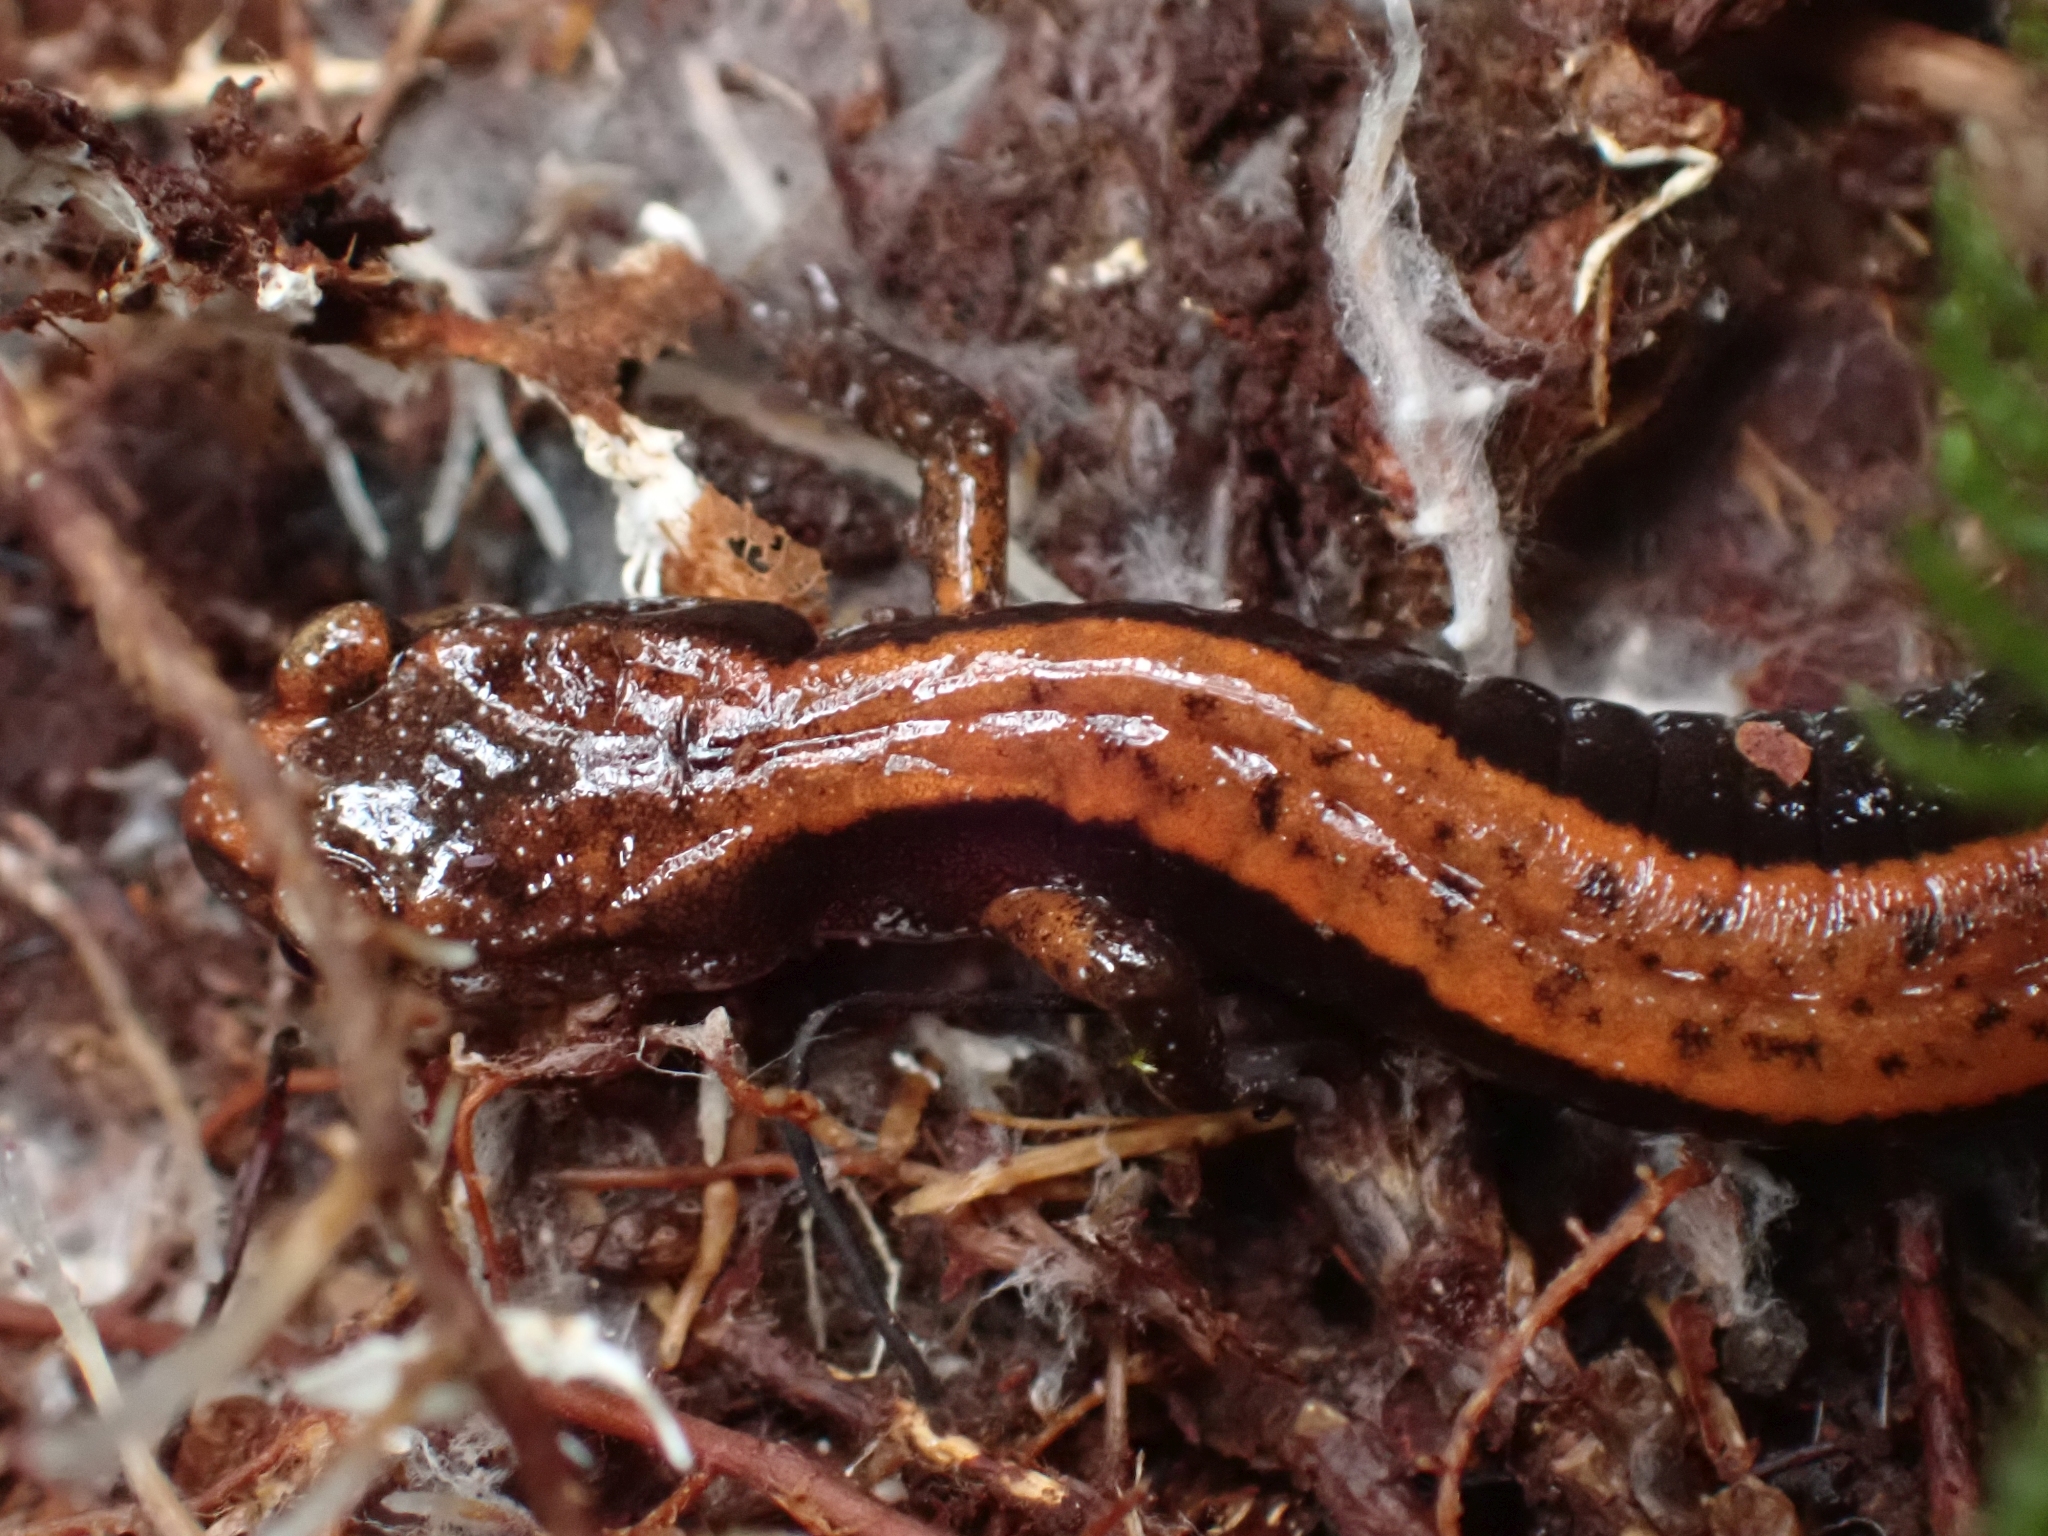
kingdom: Animalia
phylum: Chordata
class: Amphibia
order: Caudata
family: Plethodontidae
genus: Plethodon
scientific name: Plethodon vehiculum
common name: Western red-backed salamander
